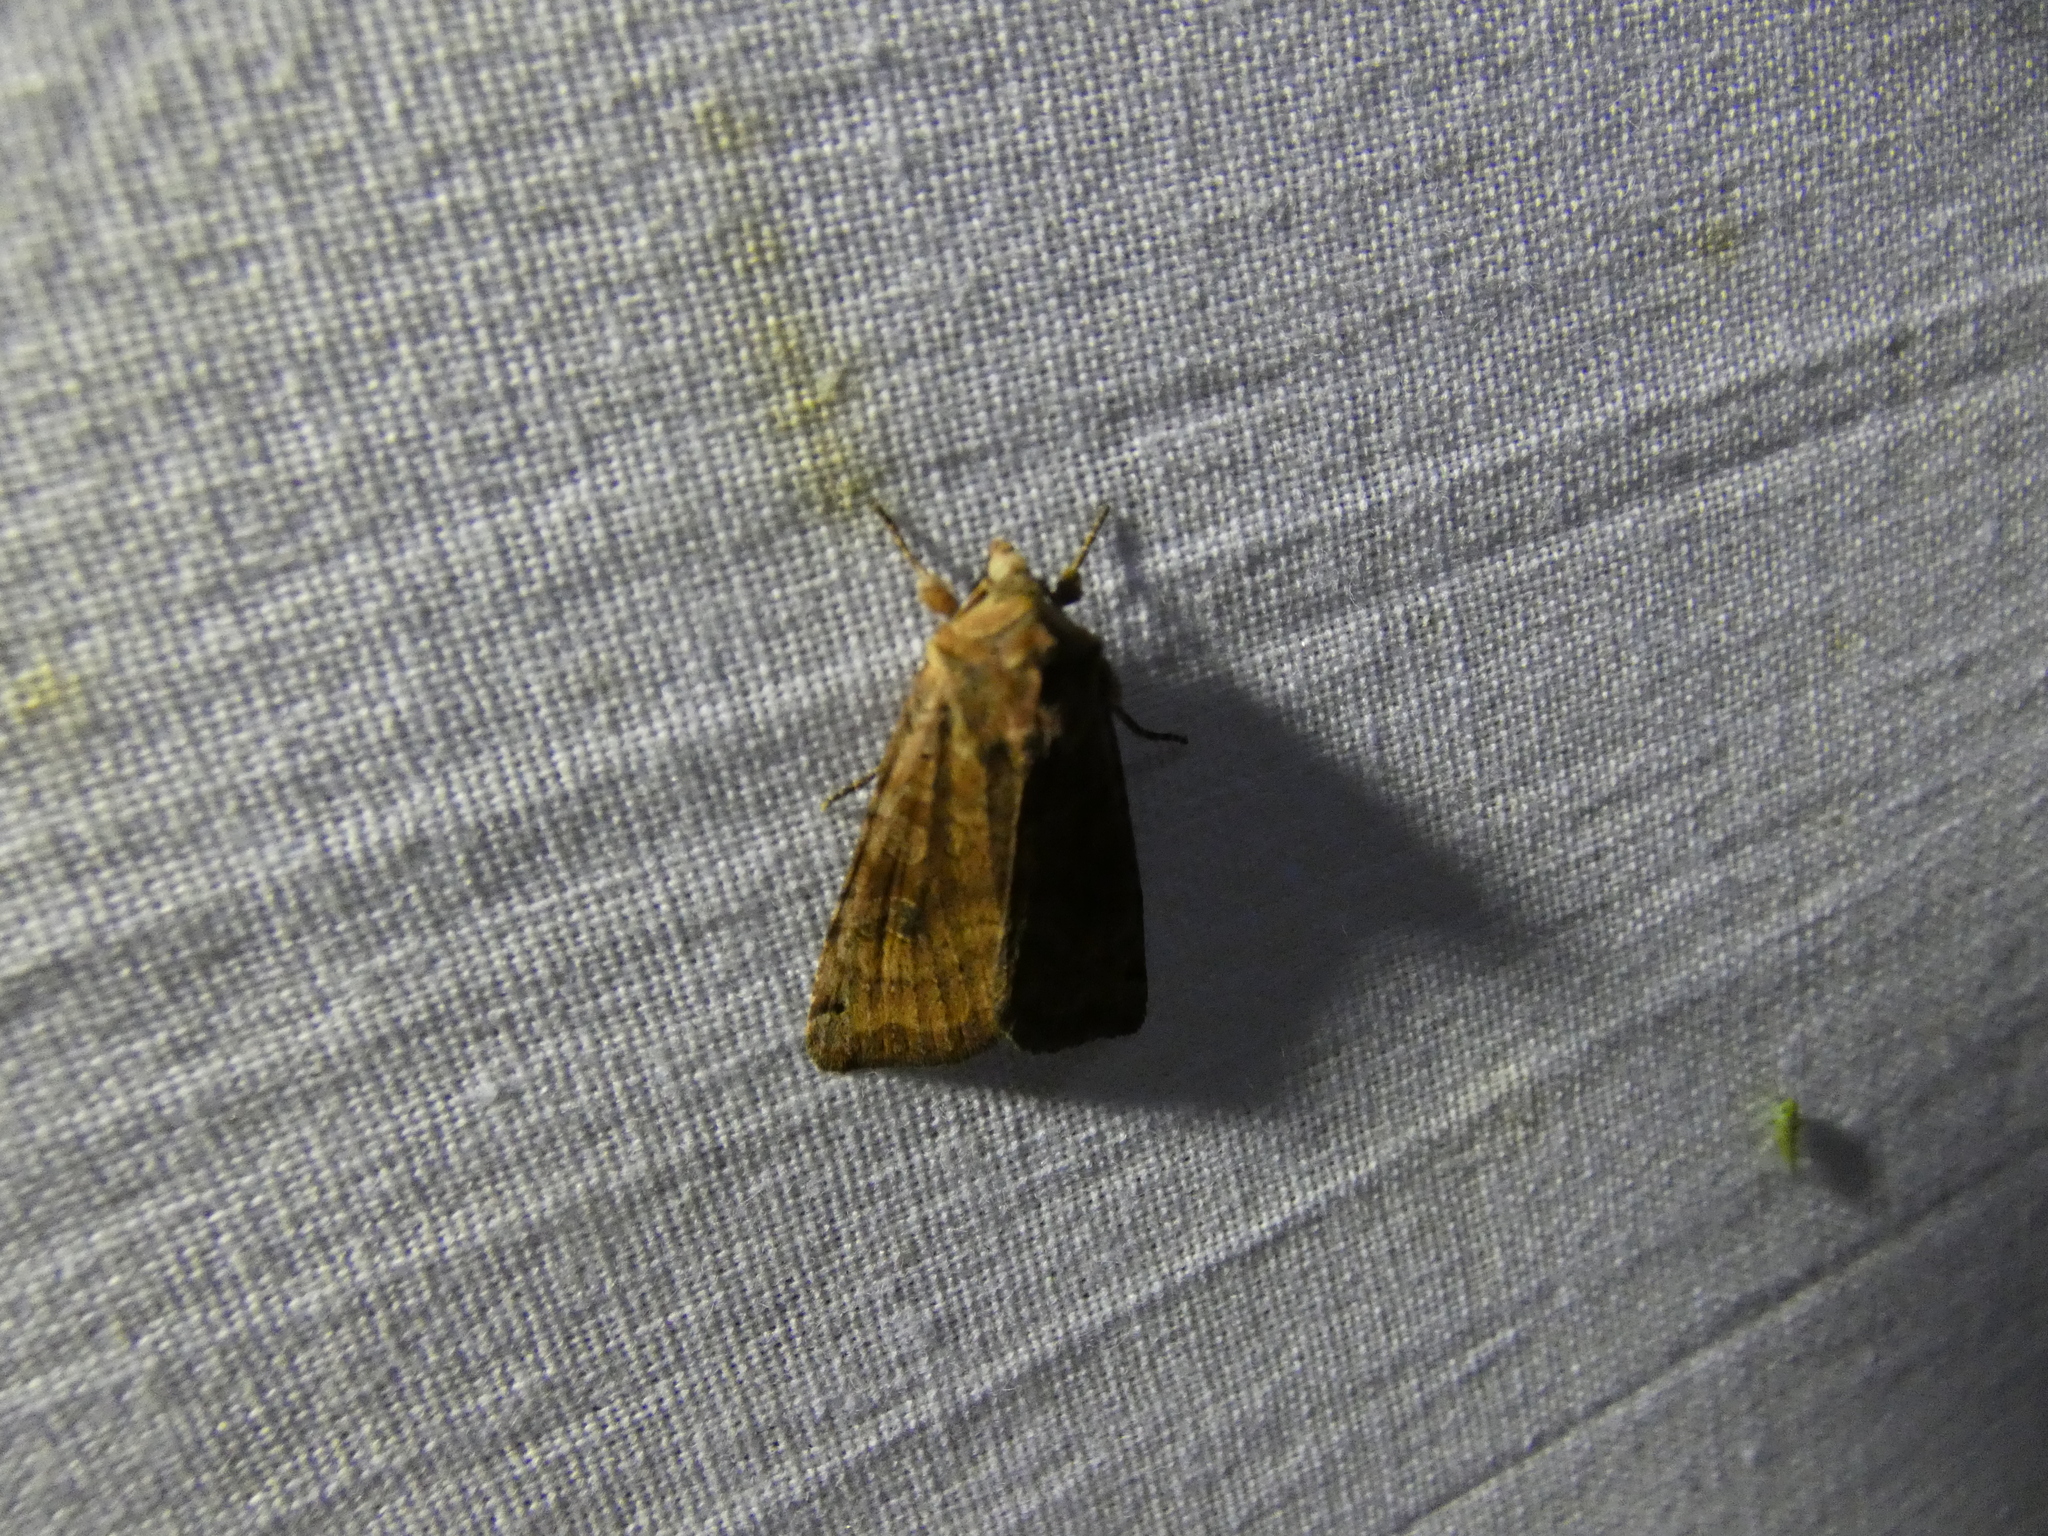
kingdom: Animalia
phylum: Arthropoda
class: Insecta
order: Lepidoptera
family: Noctuidae
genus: Xestia
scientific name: Xestia baja
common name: Dotted clay
